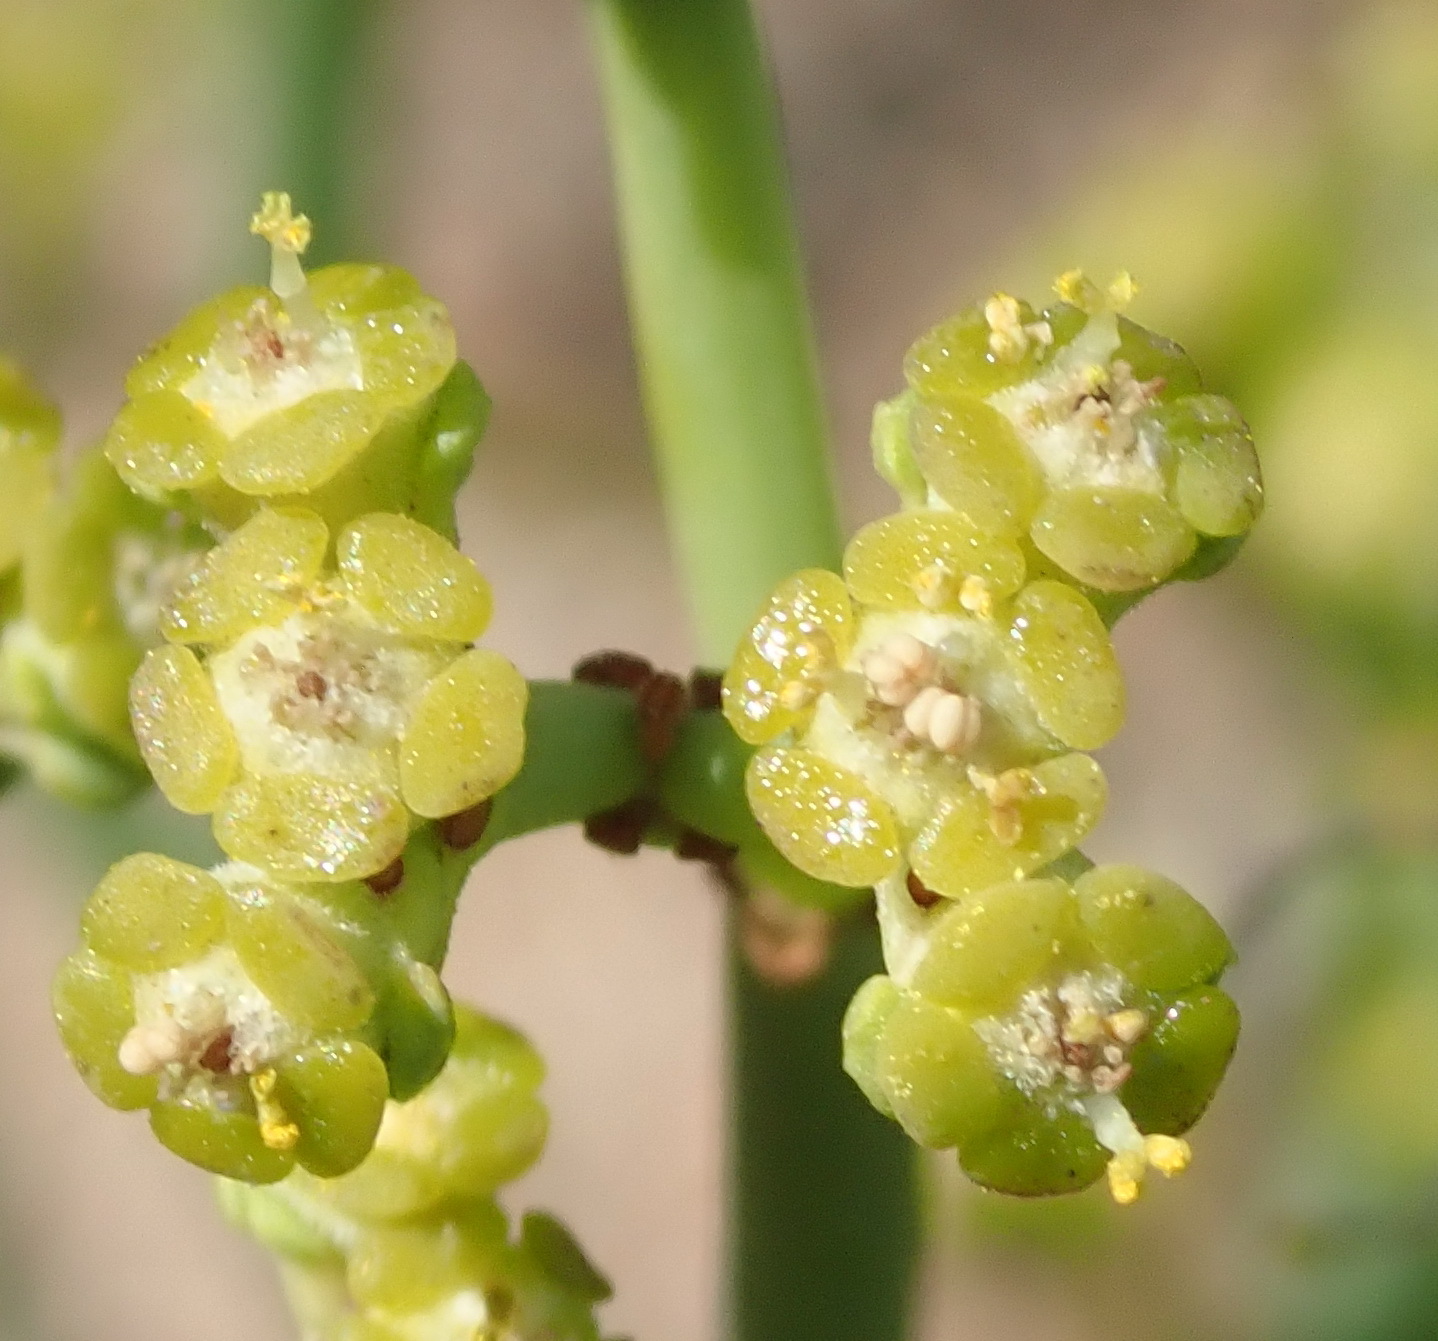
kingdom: Plantae
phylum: Tracheophyta
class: Magnoliopsida
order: Malpighiales
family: Euphorbiaceae
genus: Euphorbia
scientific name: Euphorbia burmanni
